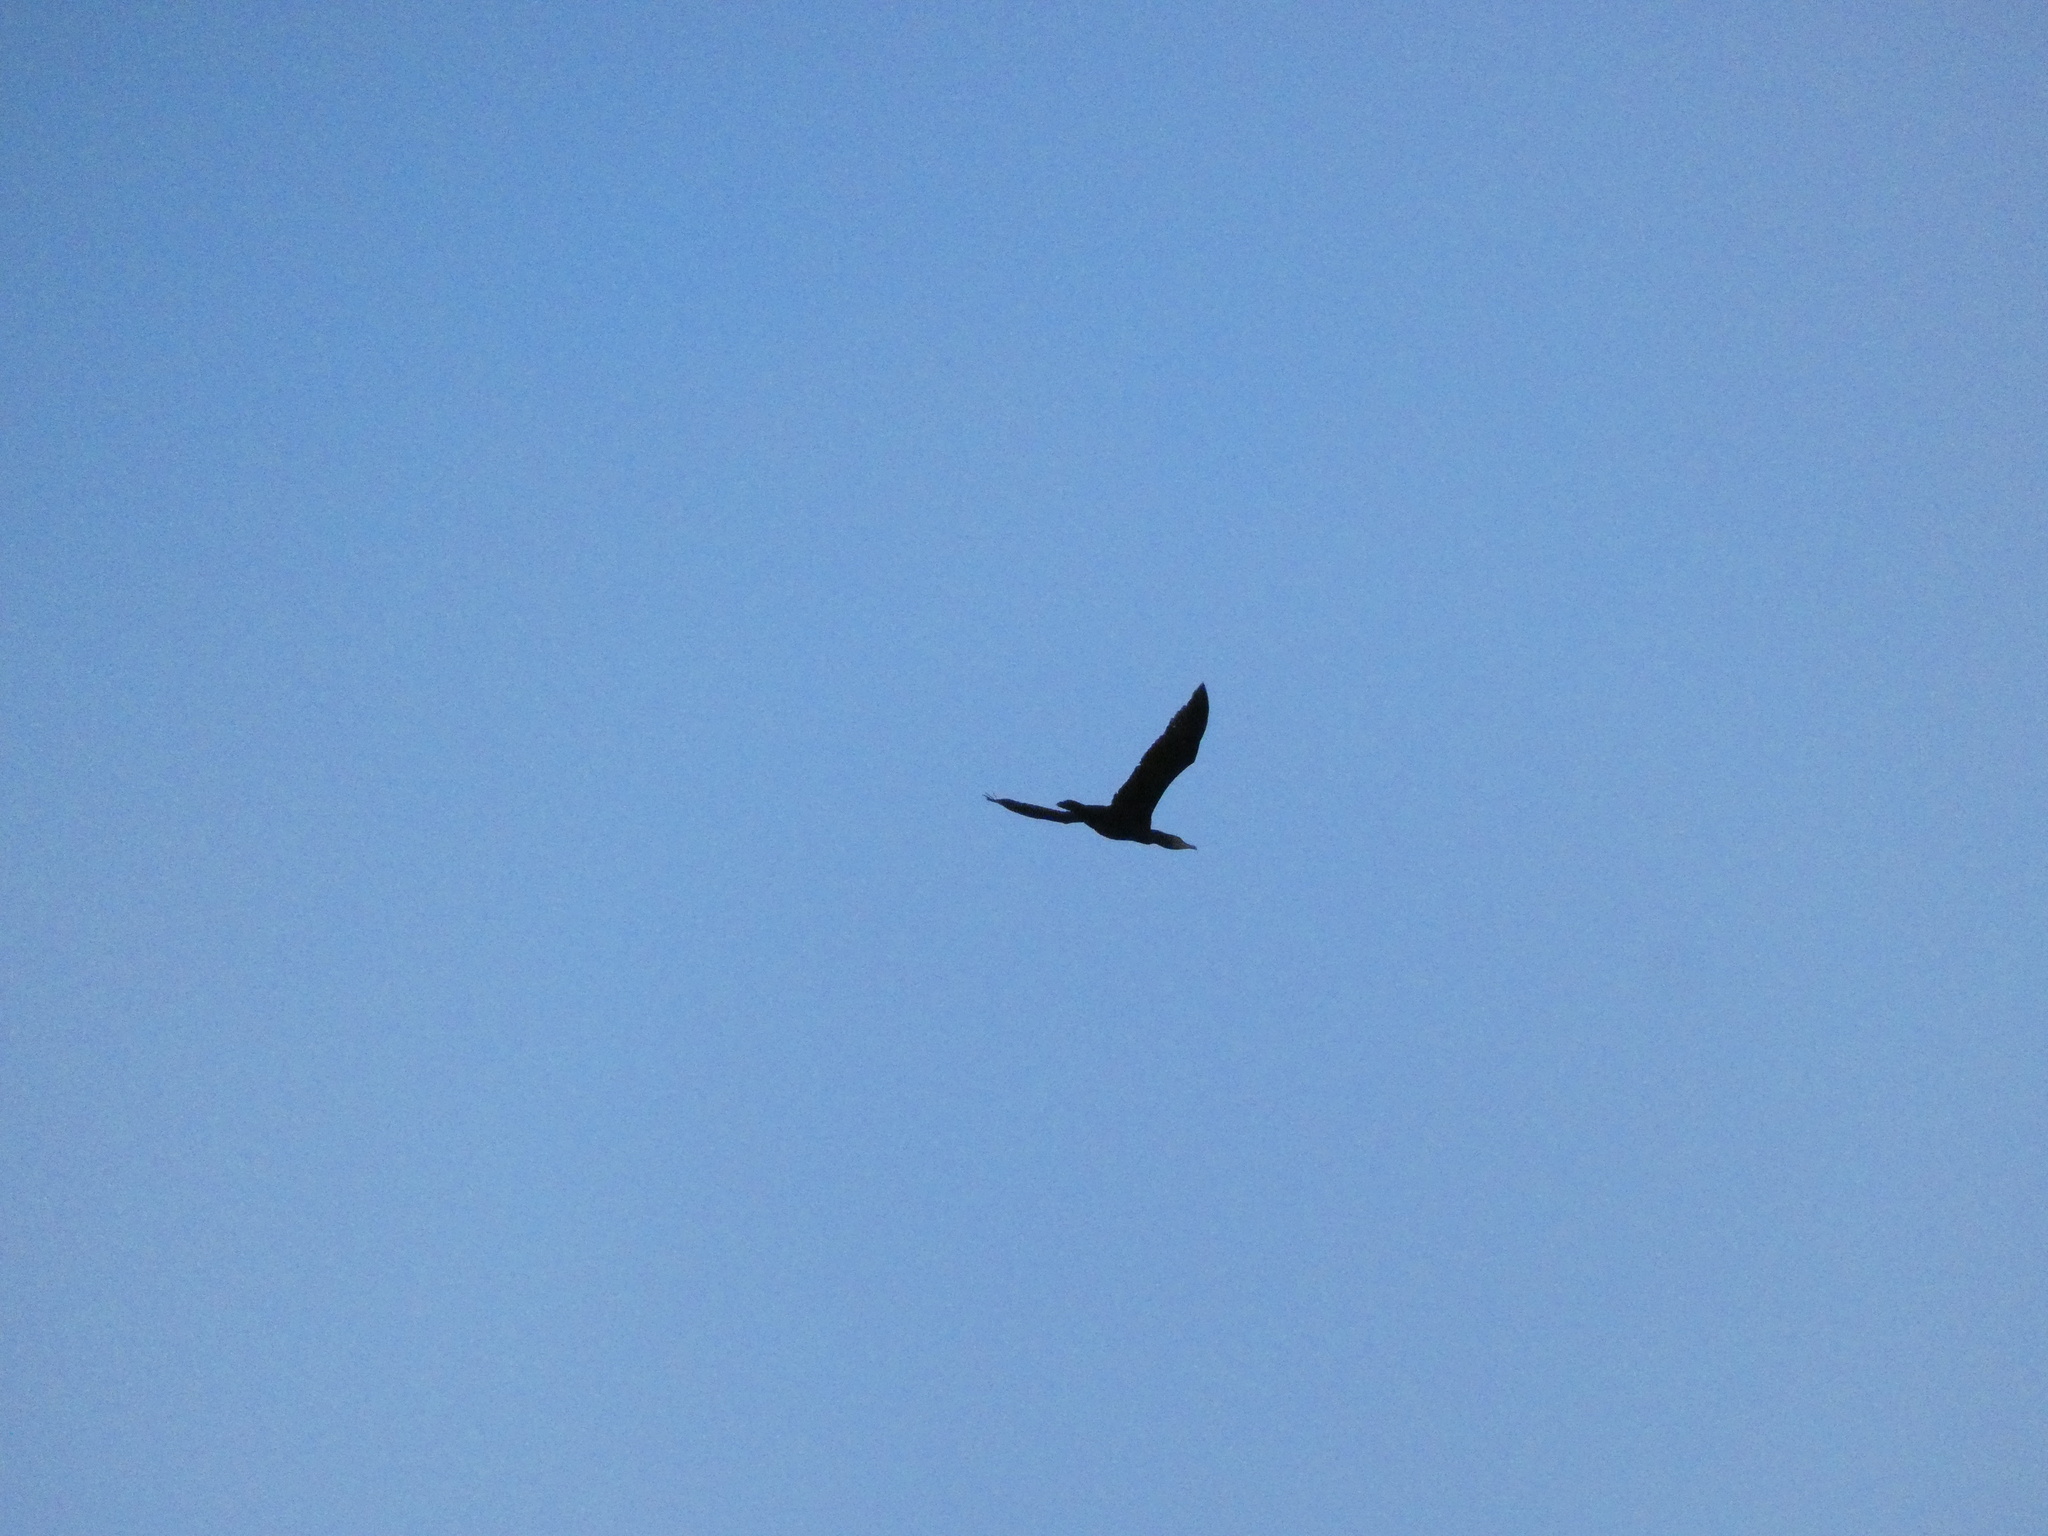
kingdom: Animalia
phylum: Chordata
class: Aves
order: Suliformes
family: Phalacrocoracidae
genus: Phalacrocorax
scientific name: Phalacrocorax carbo
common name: Great cormorant
